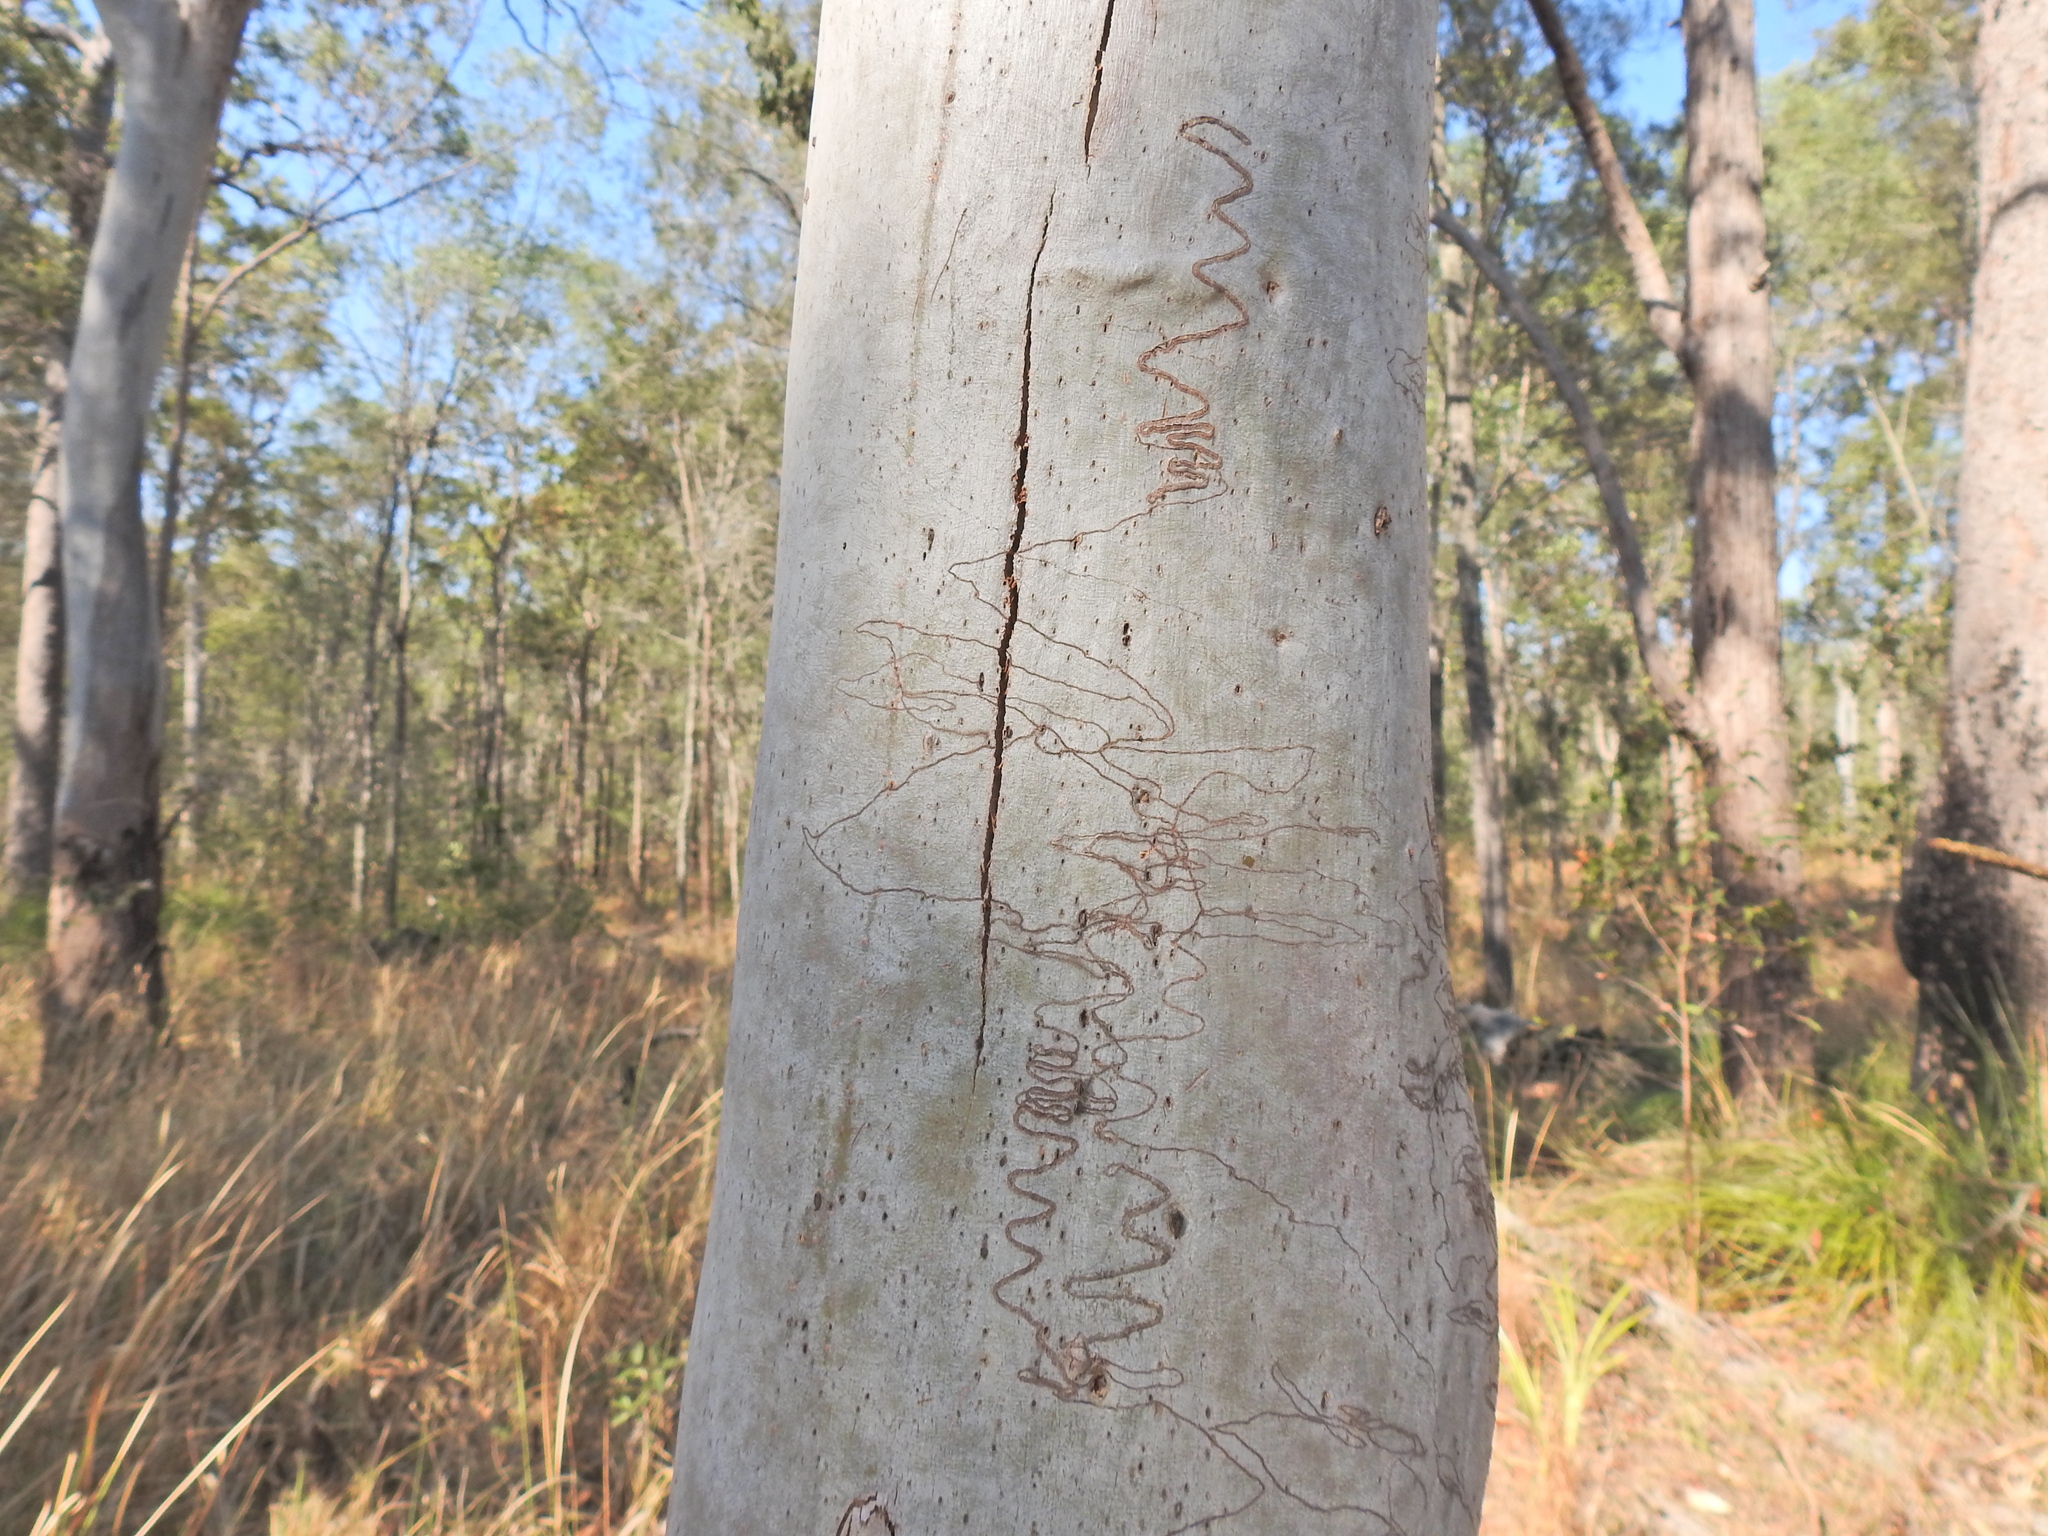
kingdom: Plantae
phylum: Tracheophyta
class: Magnoliopsida
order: Myrtales
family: Myrtaceae
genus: Eucalyptus
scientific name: Eucalyptus racemosa
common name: Scribbly gum
